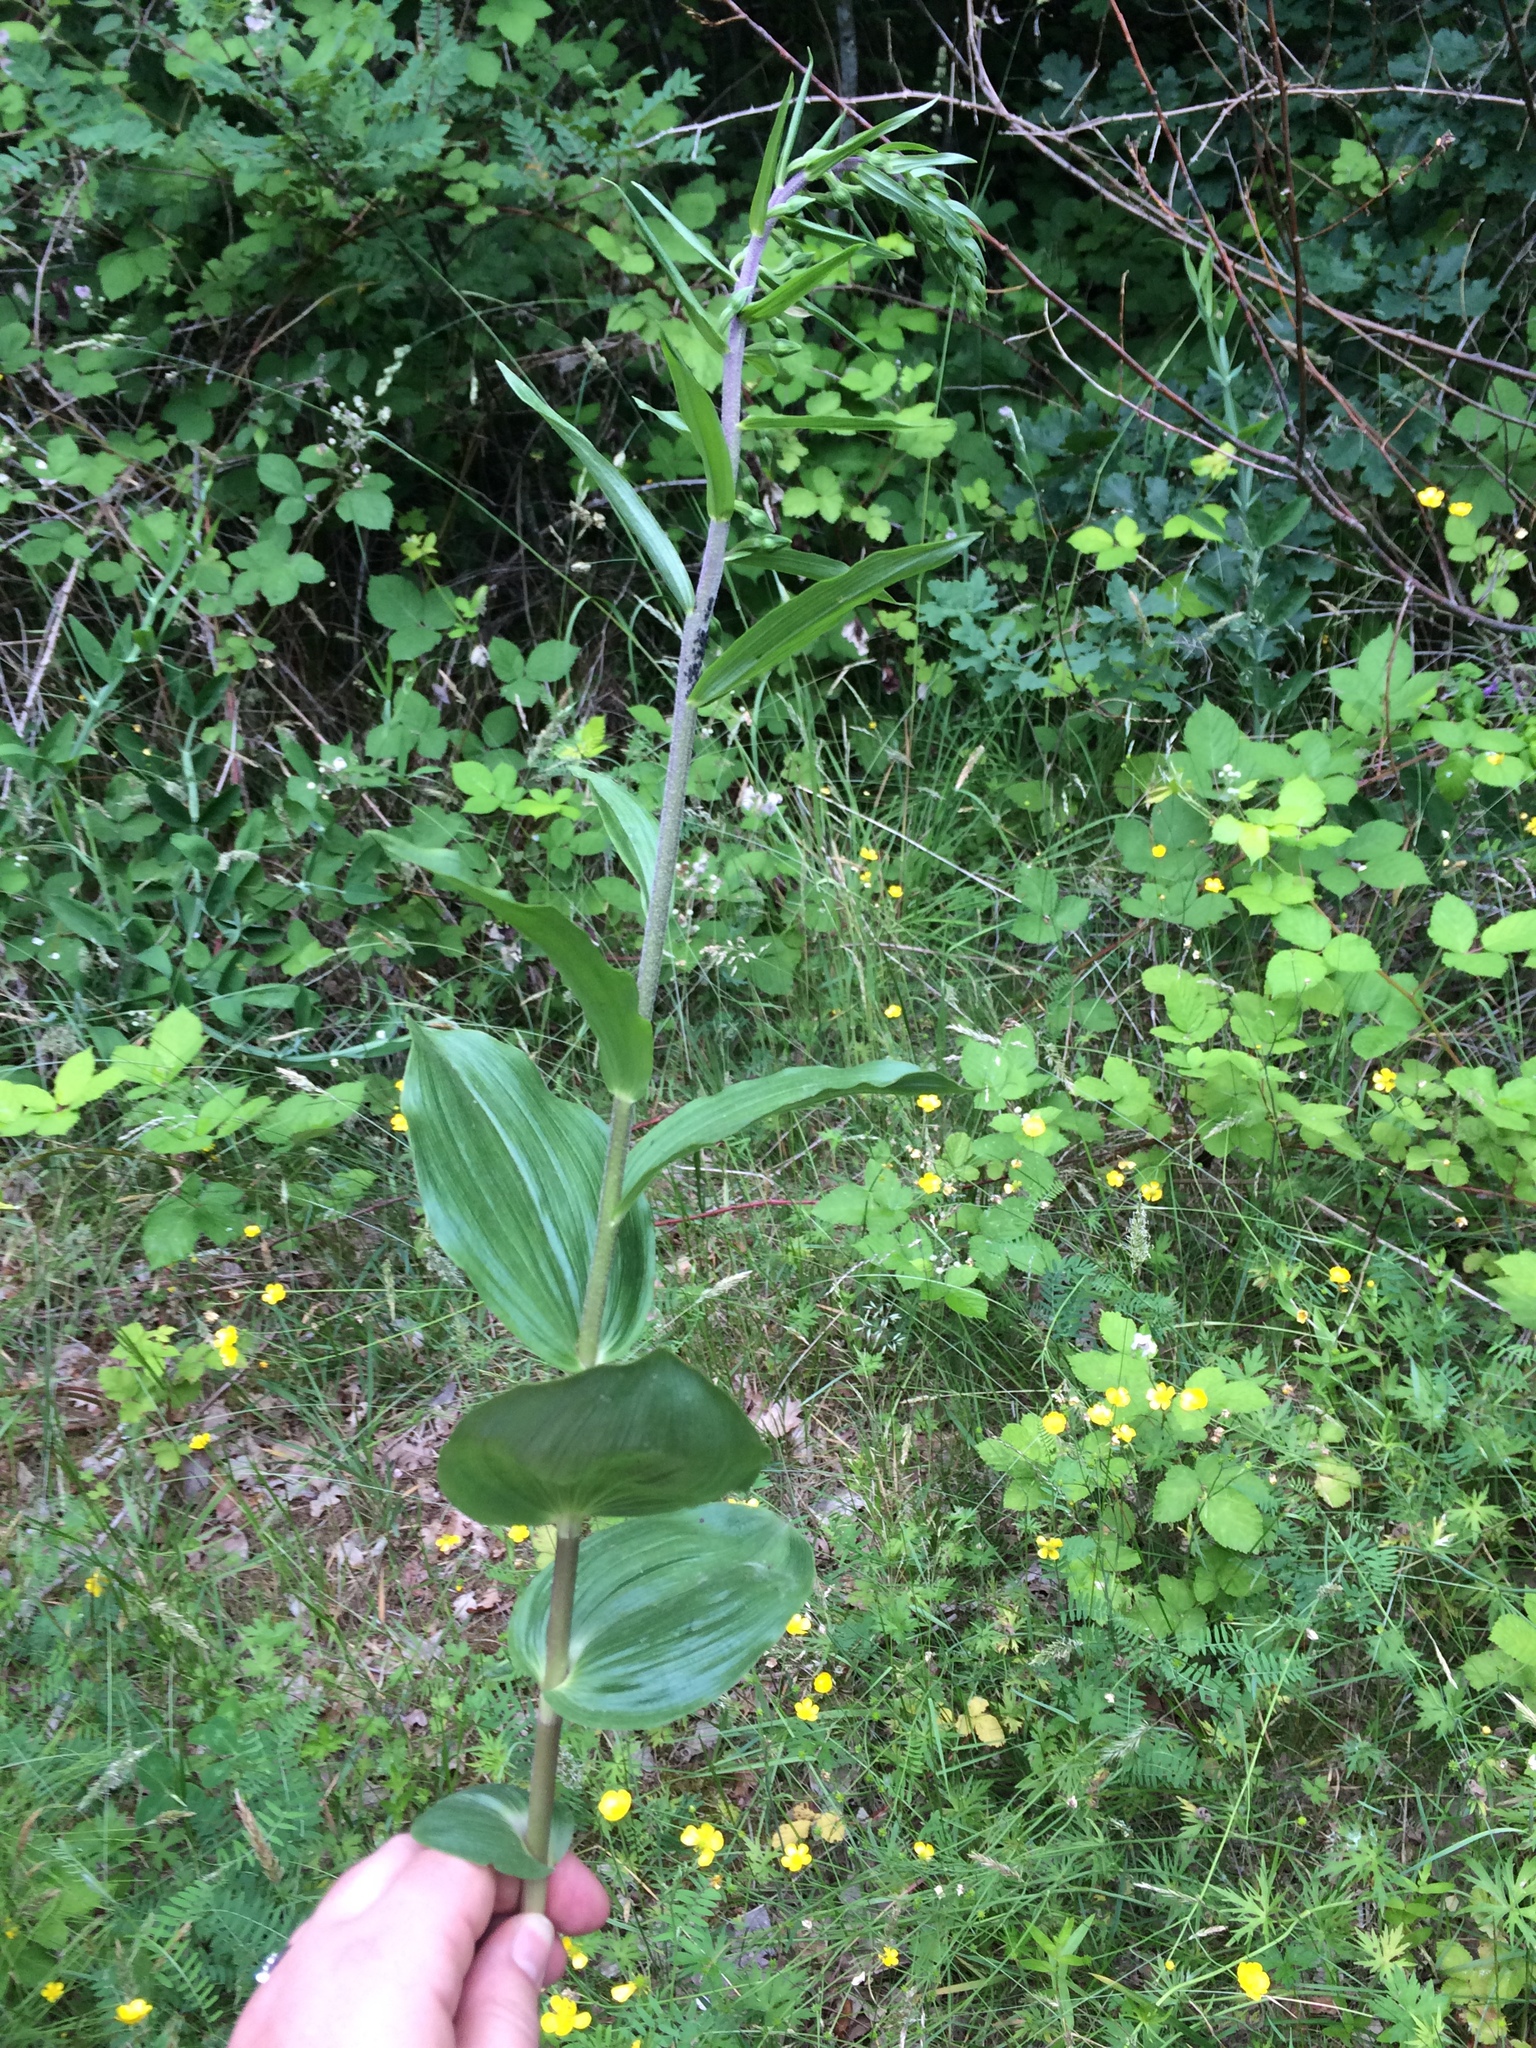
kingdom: Plantae
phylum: Tracheophyta
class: Liliopsida
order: Asparagales
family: Orchidaceae
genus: Epipactis
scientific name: Epipactis helleborine
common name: Broad-leaved helleborine
